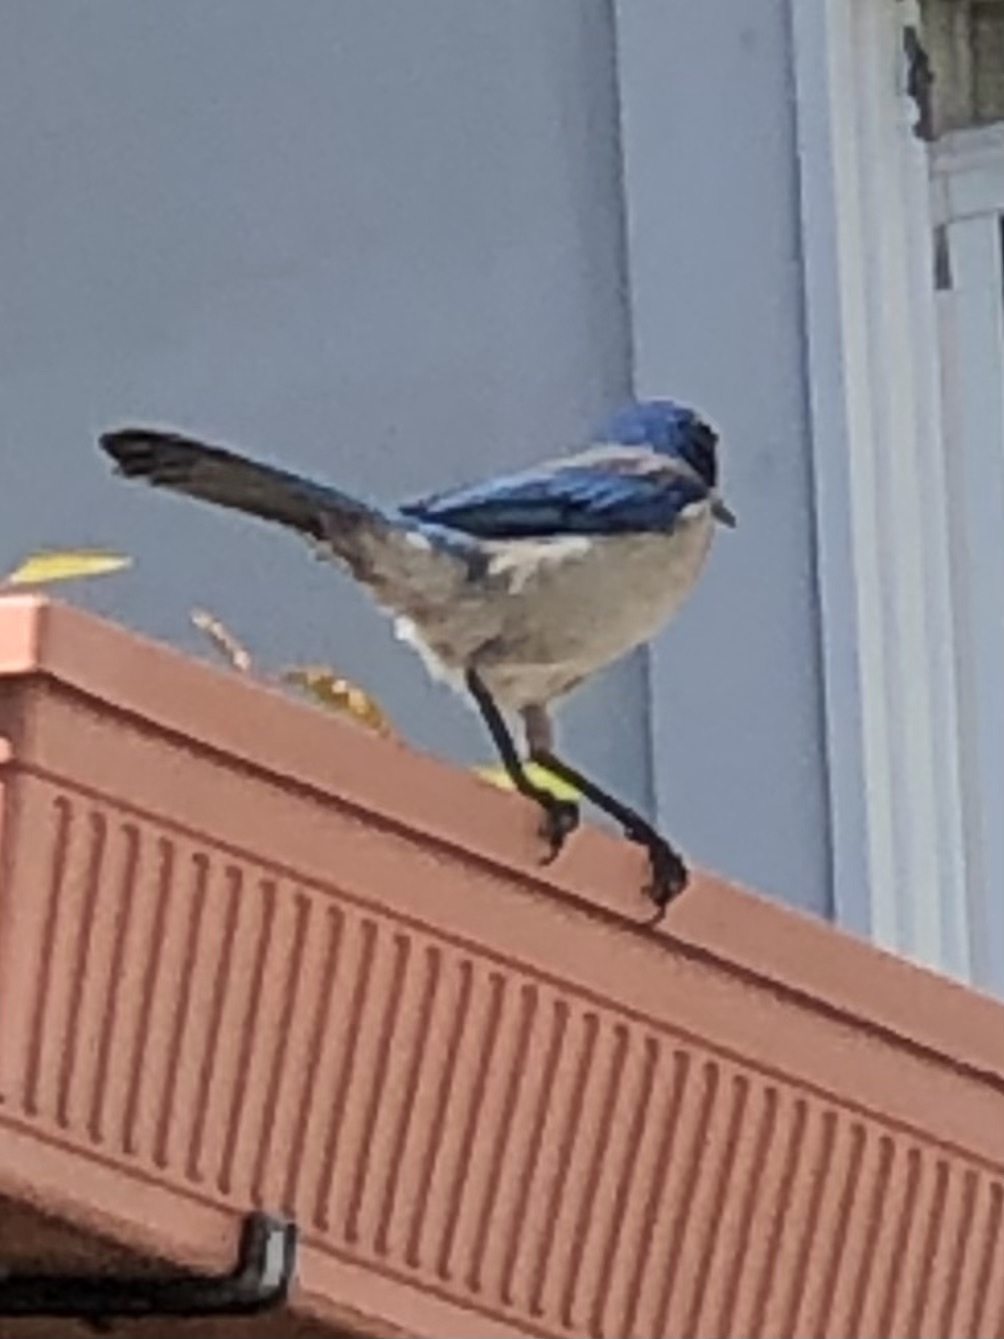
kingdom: Animalia
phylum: Chordata
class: Aves
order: Passeriformes
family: Corvidae
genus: Aphelocoma
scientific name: Aphelocoma californica
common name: California scrub-jay
